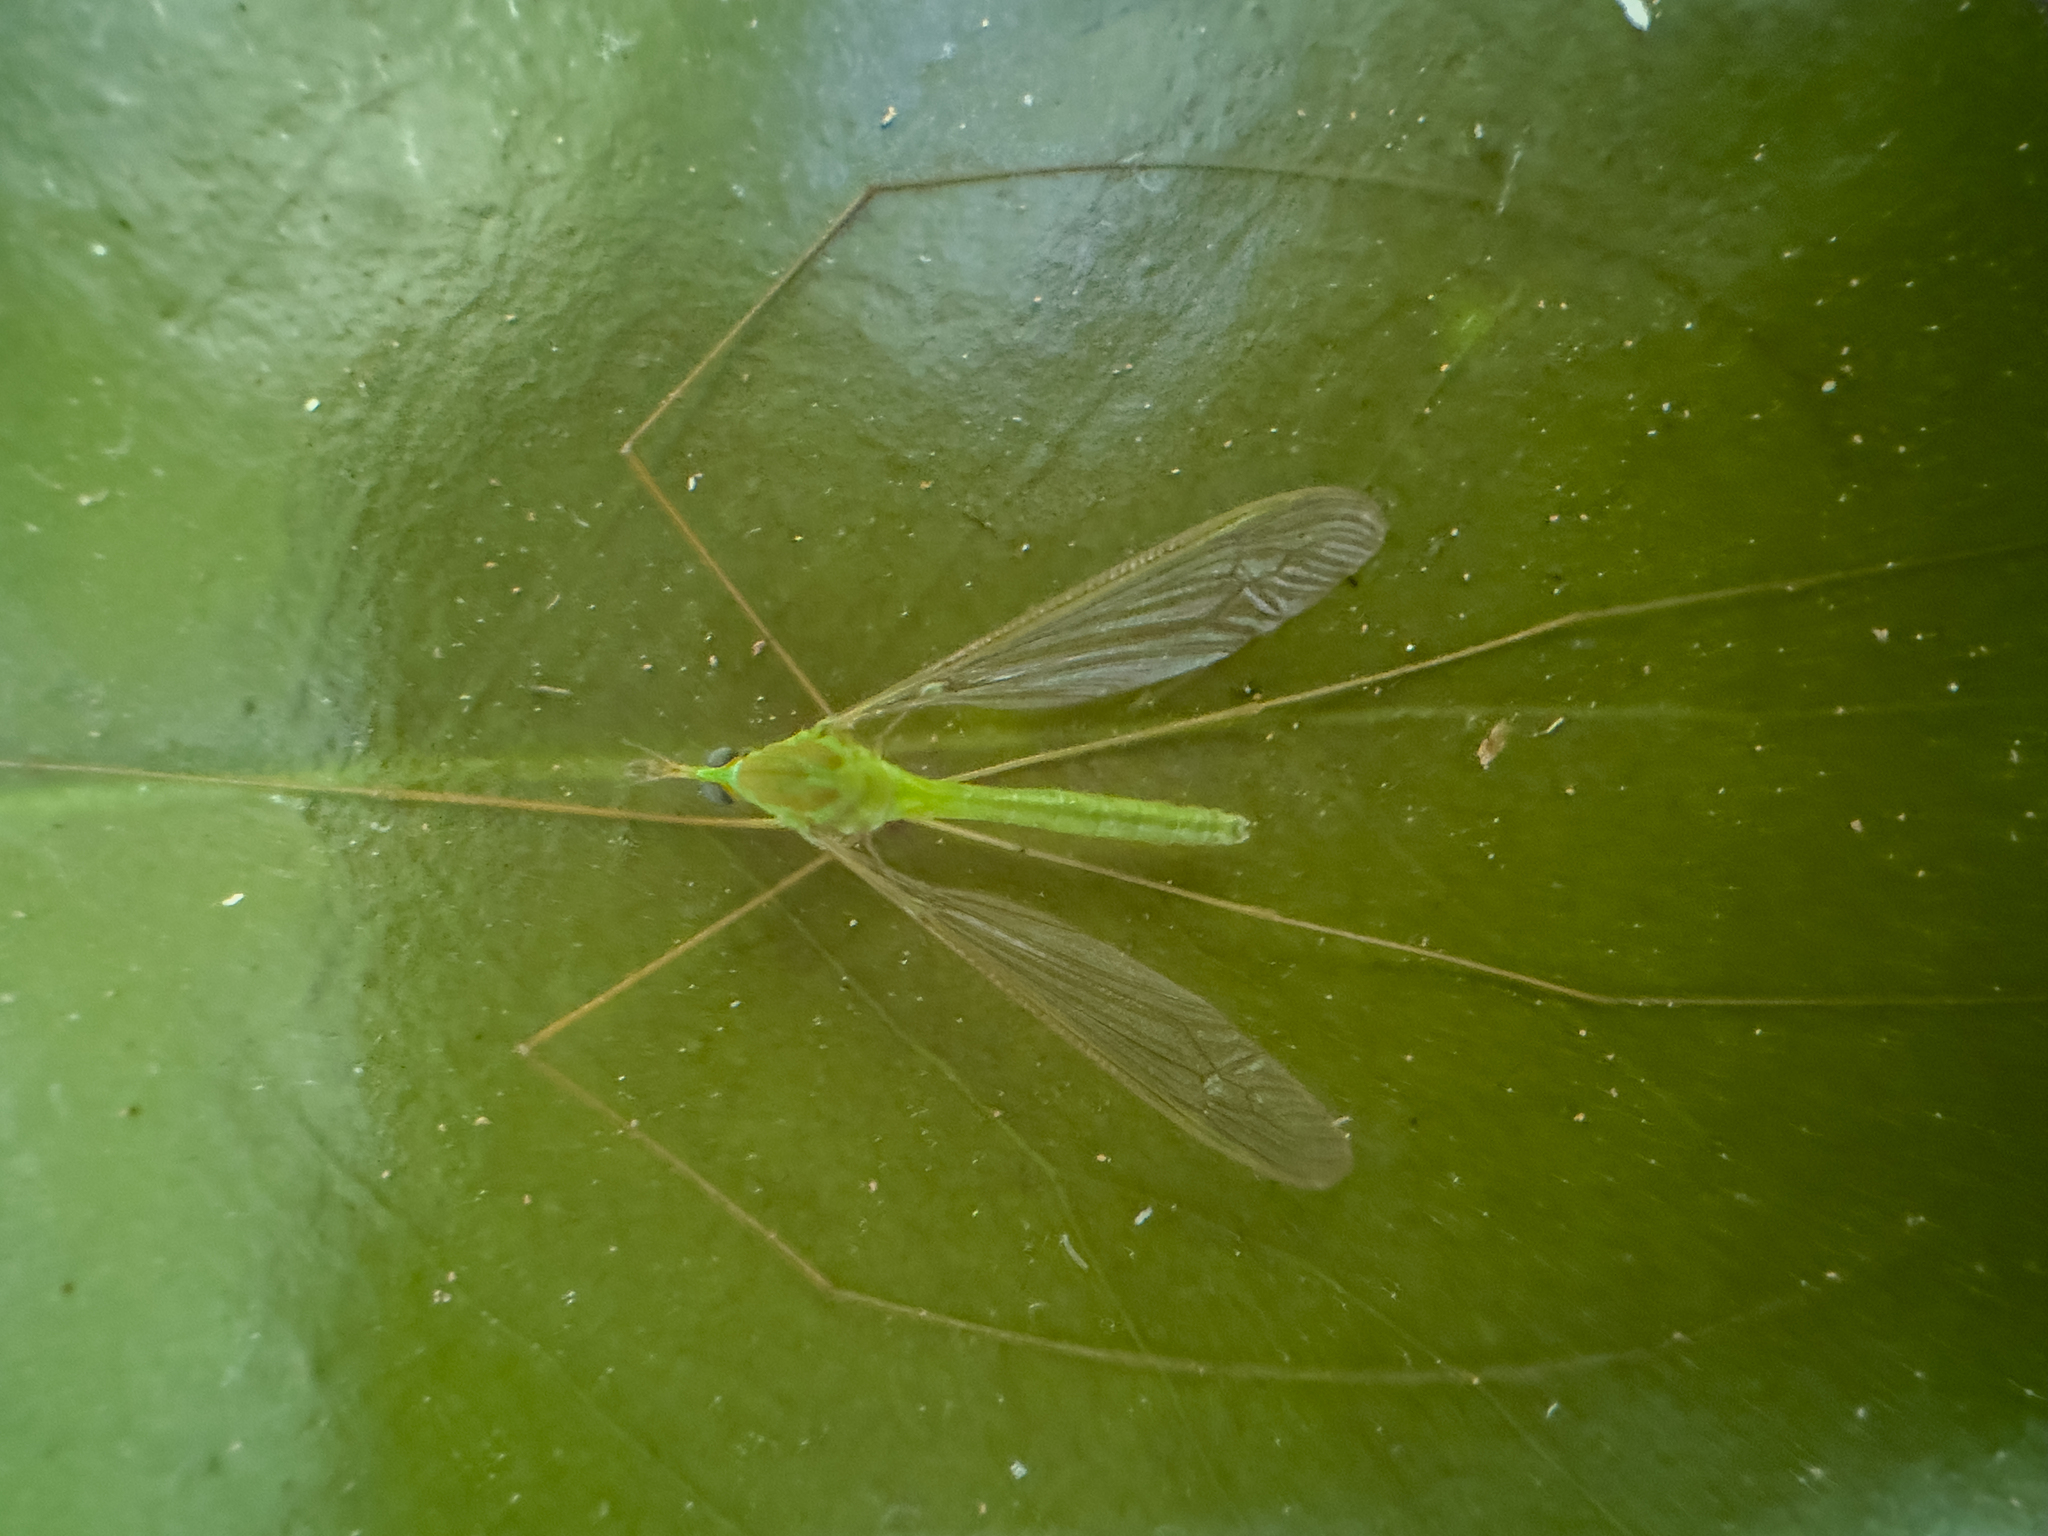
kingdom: Animalia
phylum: Arthropoda
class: Insecta
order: Diptera
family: Tipulidae
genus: Leptotarsus
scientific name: Leptotarsus virescens
